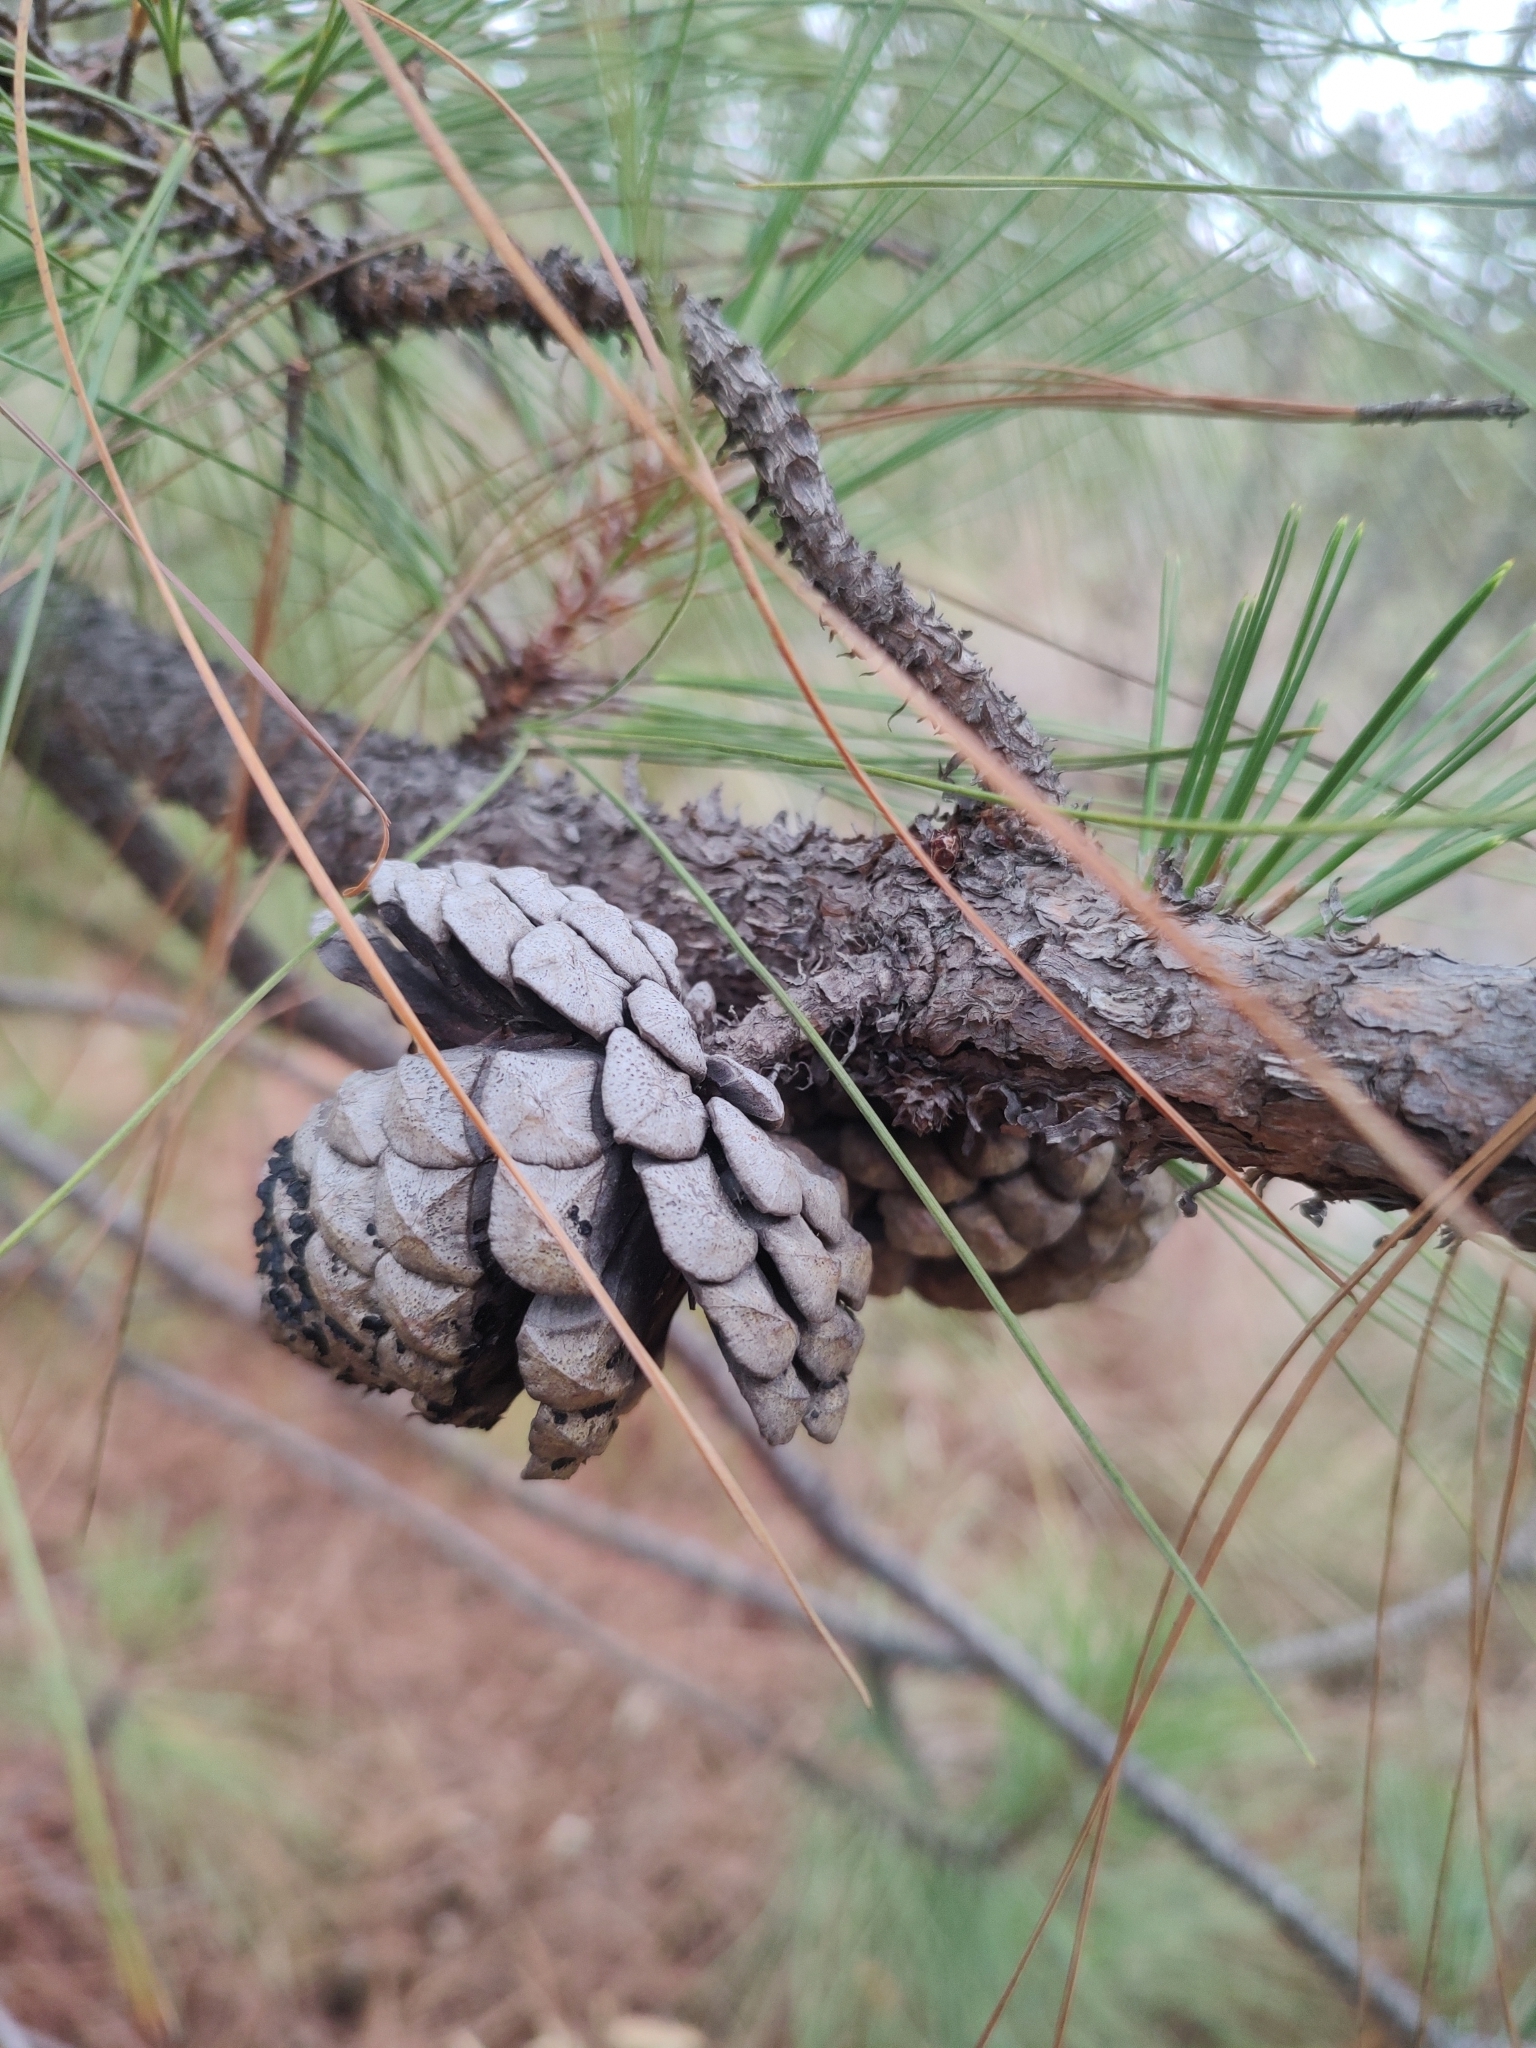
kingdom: Plantae
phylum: Tracheophyta
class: Pinopsida
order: Pinales
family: Pinaceae
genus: Pinus
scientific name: Pinus oocarpa
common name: Egg-cone pine
